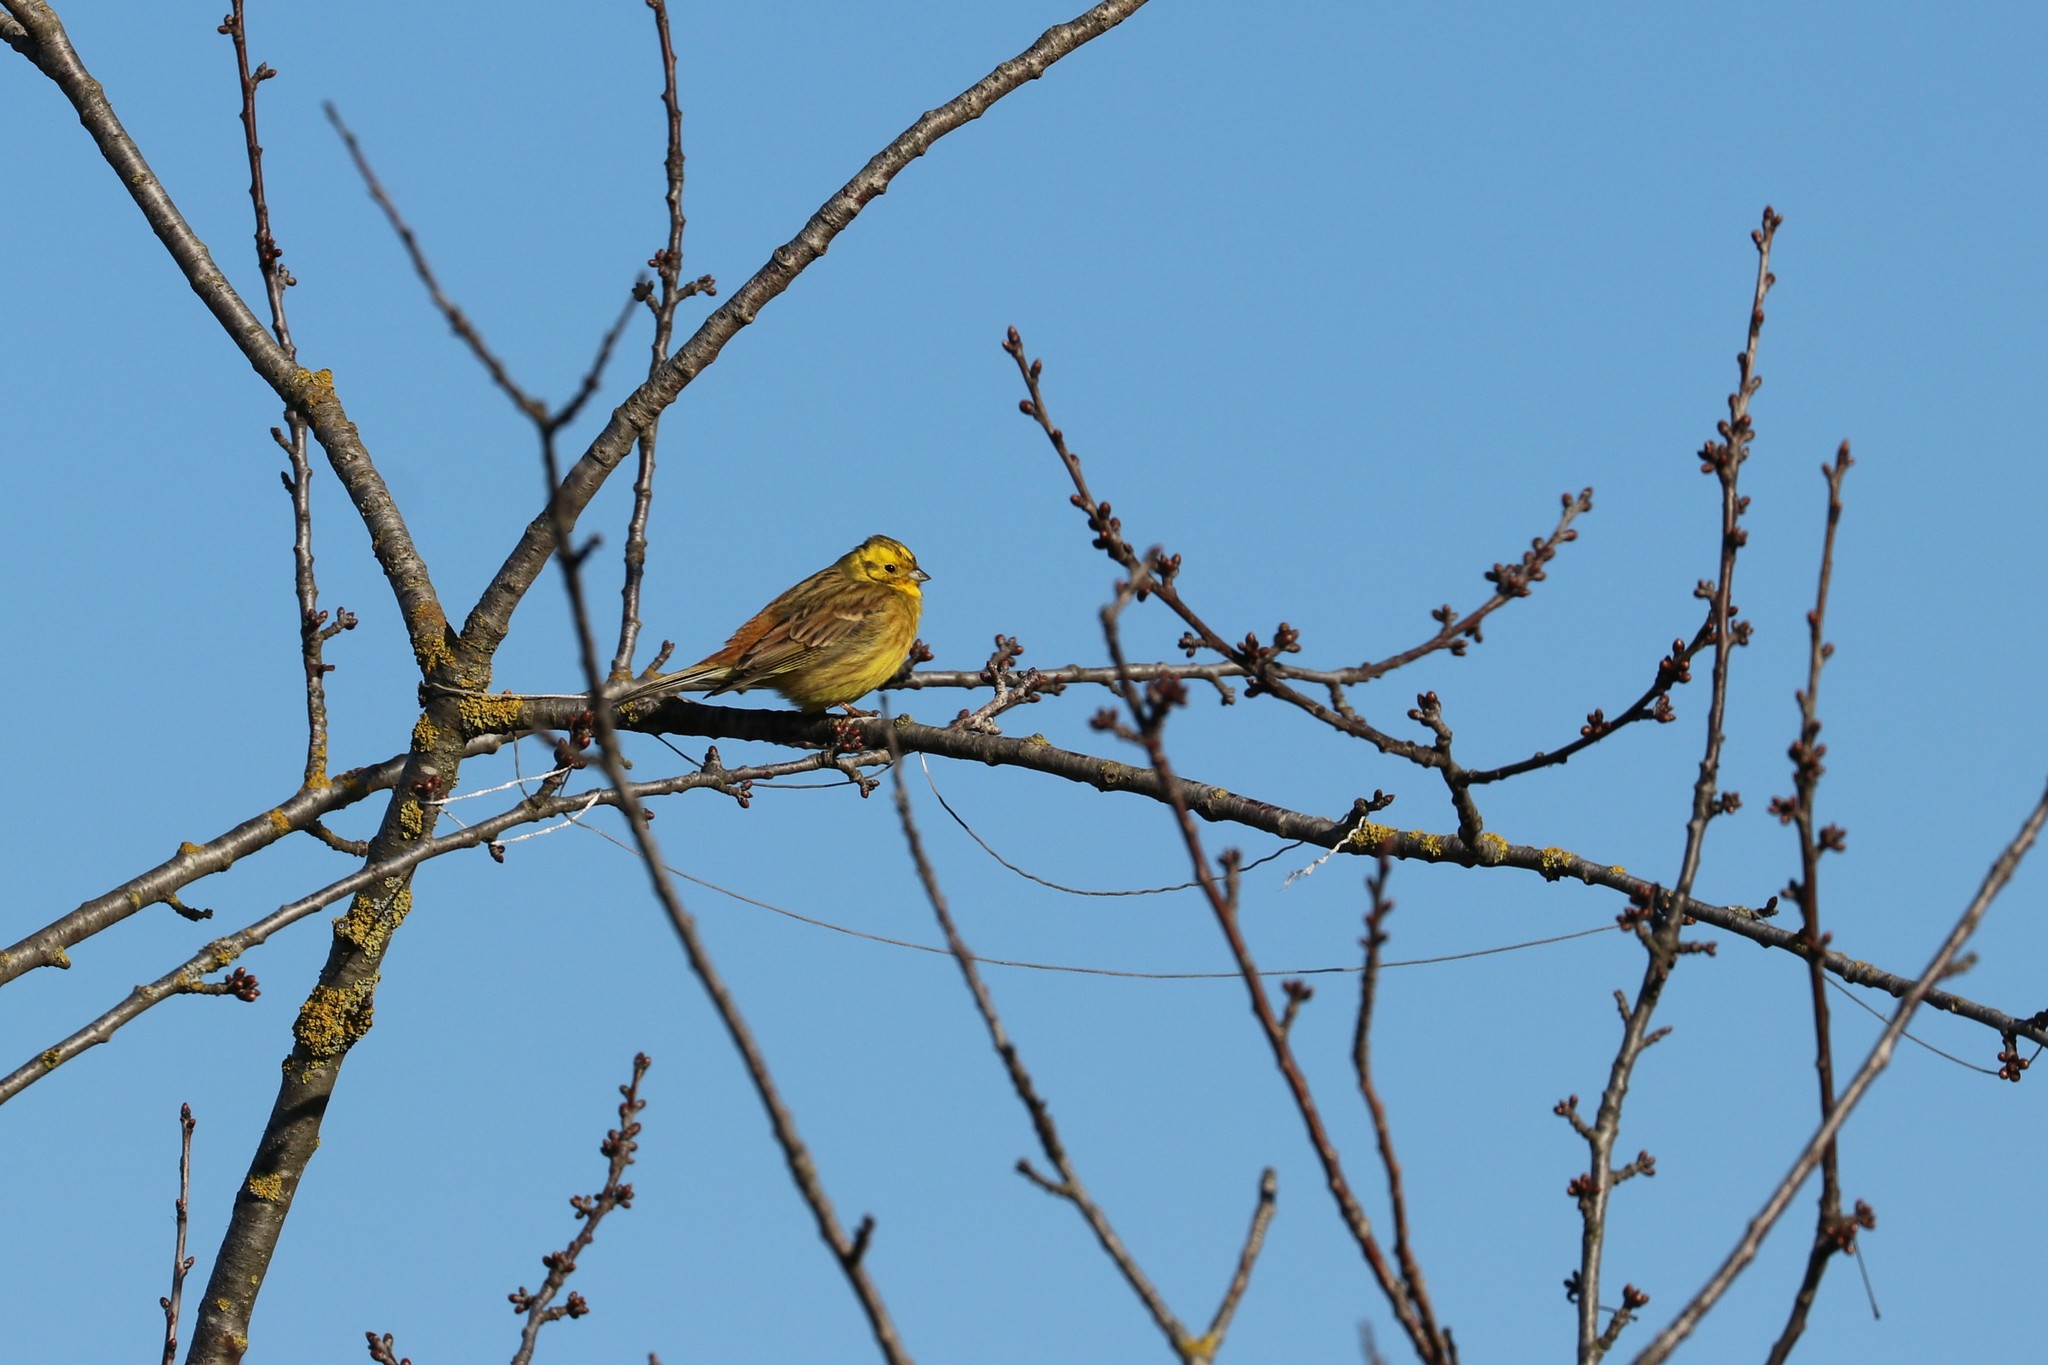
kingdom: Animalia
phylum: Chordata
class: Aves
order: Passeriformes
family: Emberizidae
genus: Emberiza
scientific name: Emberiza citrinella
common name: Yellowhammer
